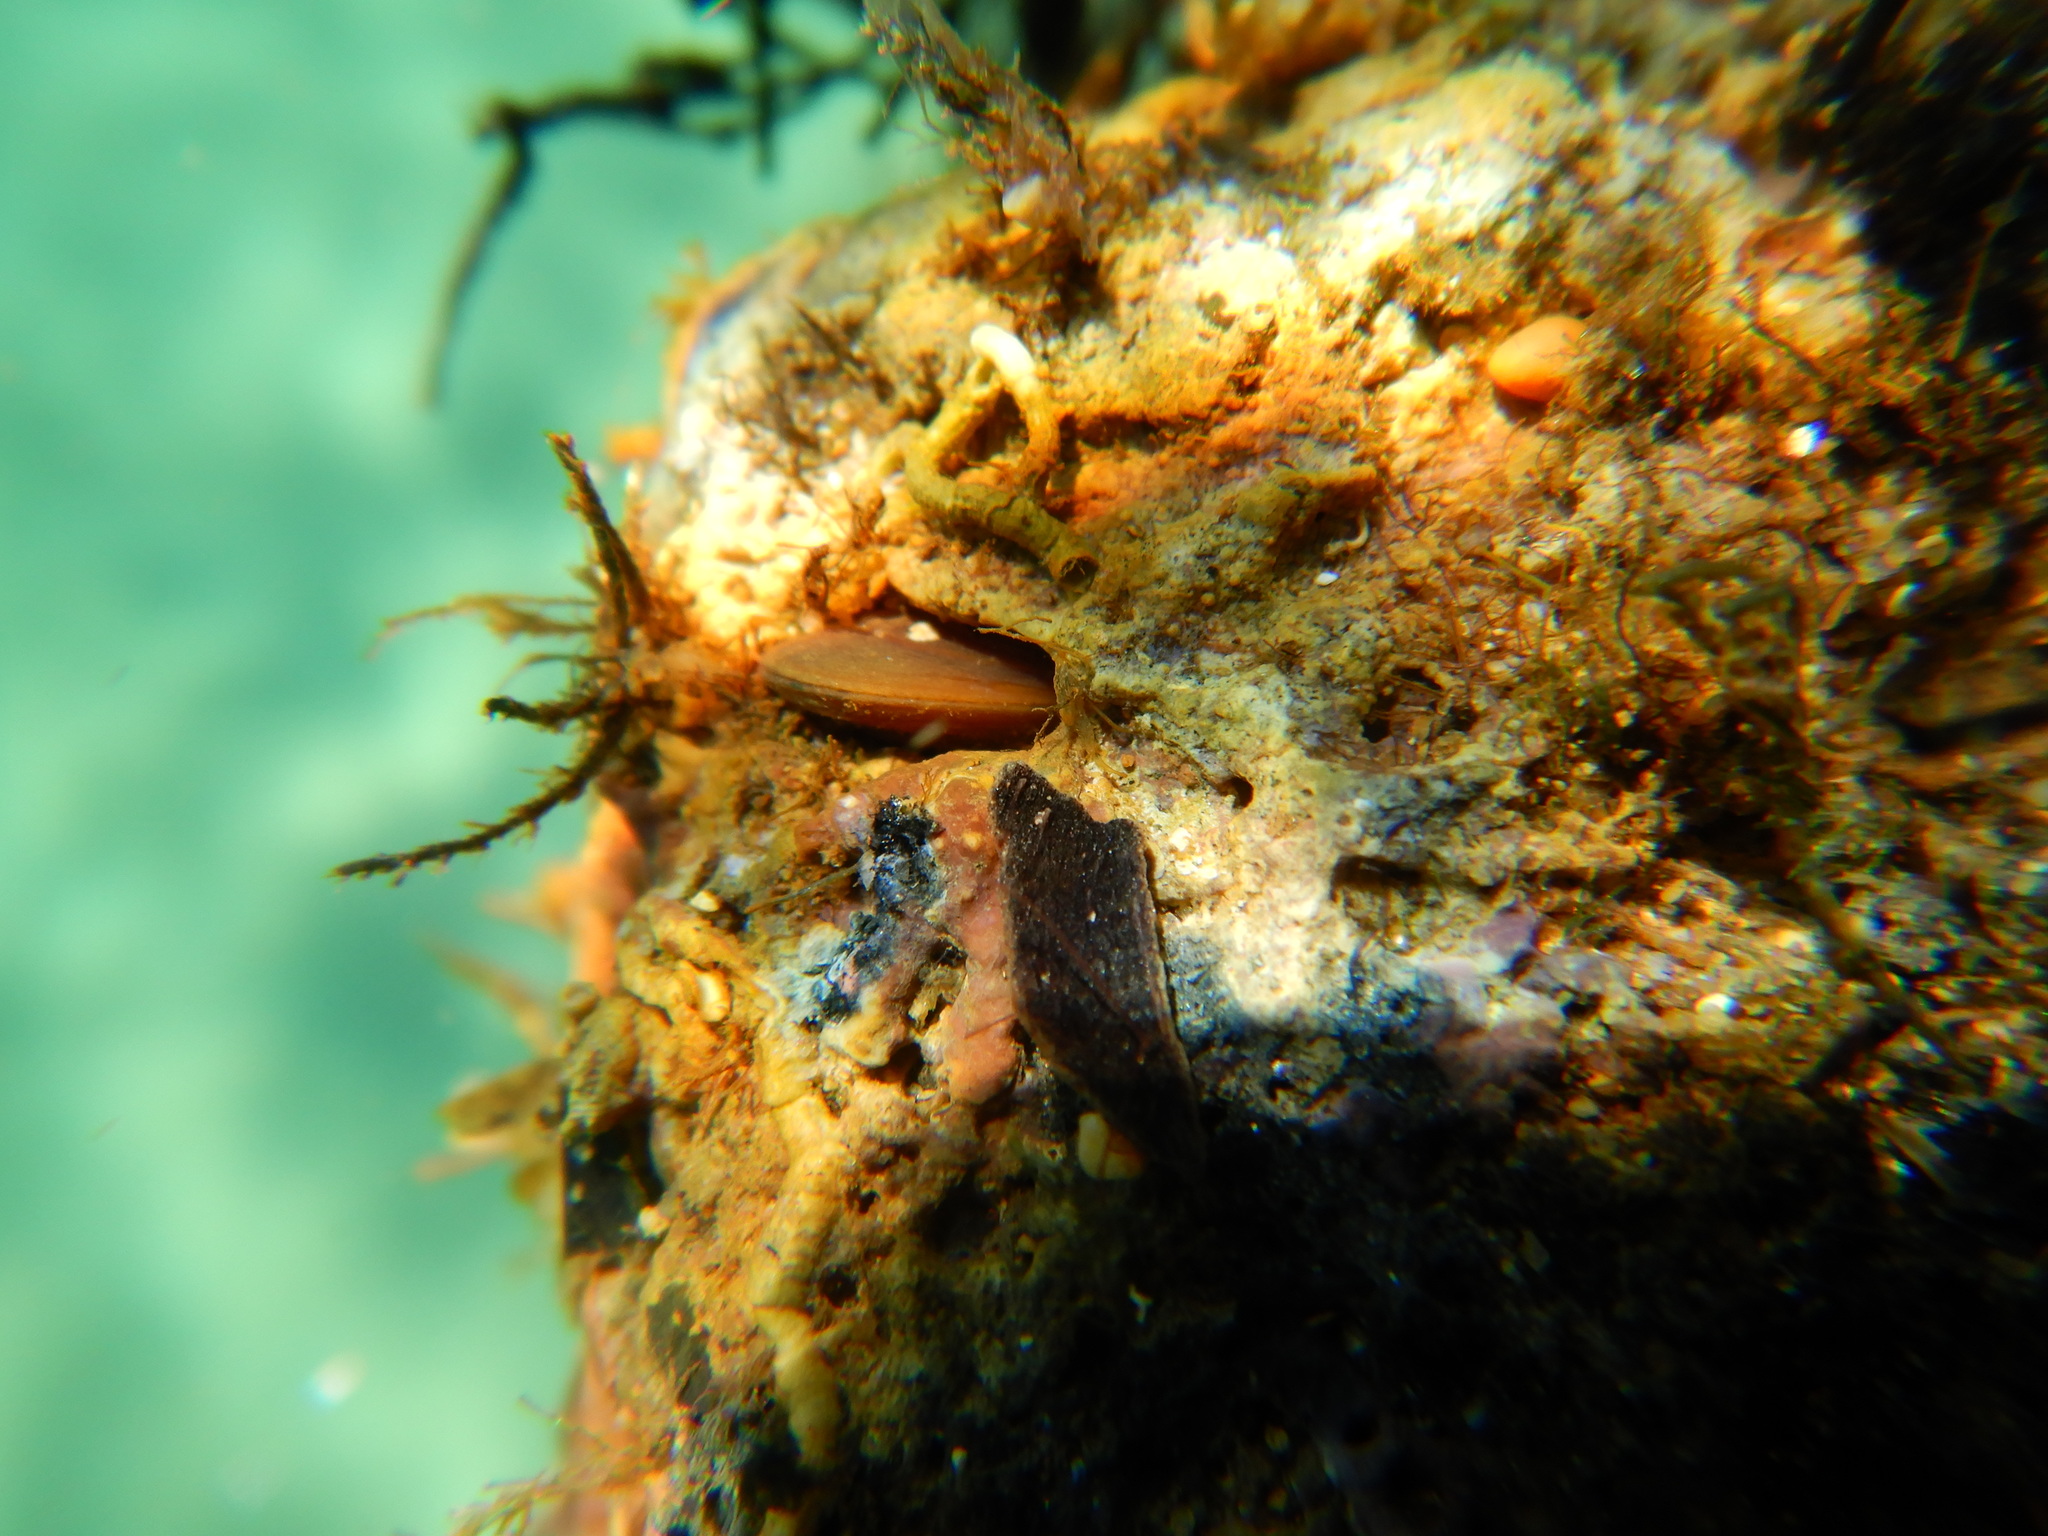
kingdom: Animalia
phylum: Mollusca
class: Bivalvia
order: Mytilida
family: Mytilidae
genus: Lithophaga
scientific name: Lithophaga lithophaga
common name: European date mussel
